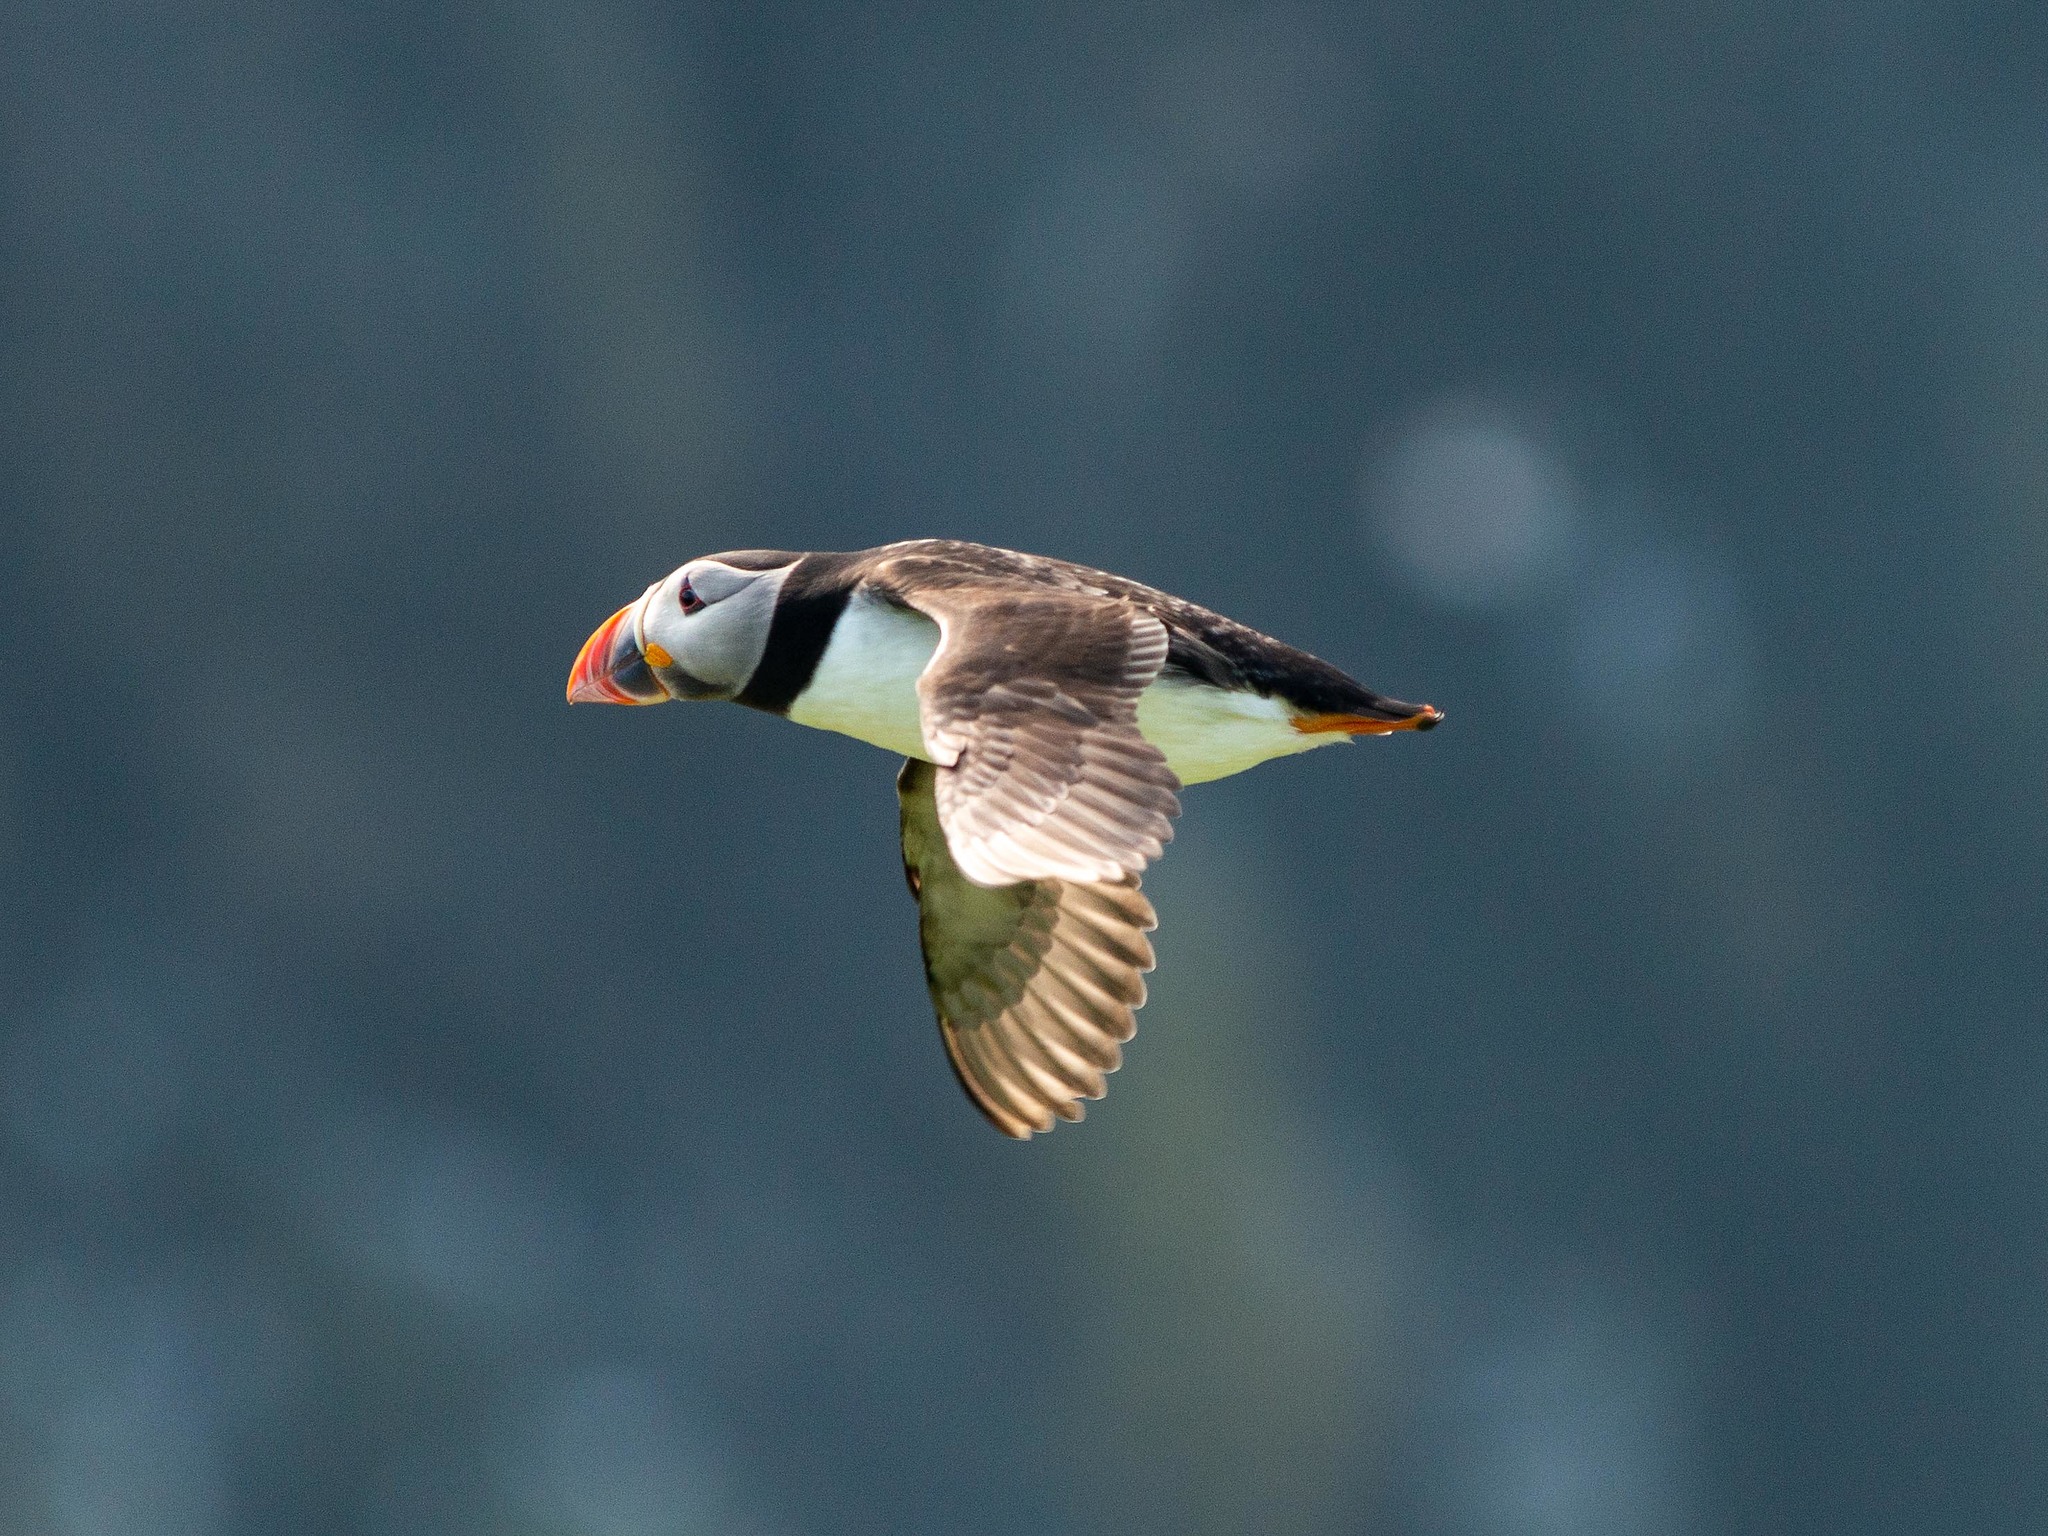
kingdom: Animalia
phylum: Chordata
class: Aves
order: Charadriiformes
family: Alcidae
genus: Fratercula
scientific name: Fratercula arctica
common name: Atlantic puffin
